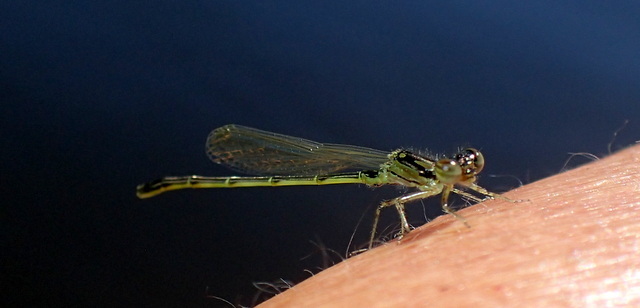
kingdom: Animalia
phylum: Arthropoda
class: Insecta
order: Odonata
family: Coenagrionidae
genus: Ischnura
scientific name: Ischnura posita
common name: Fragile forktail
